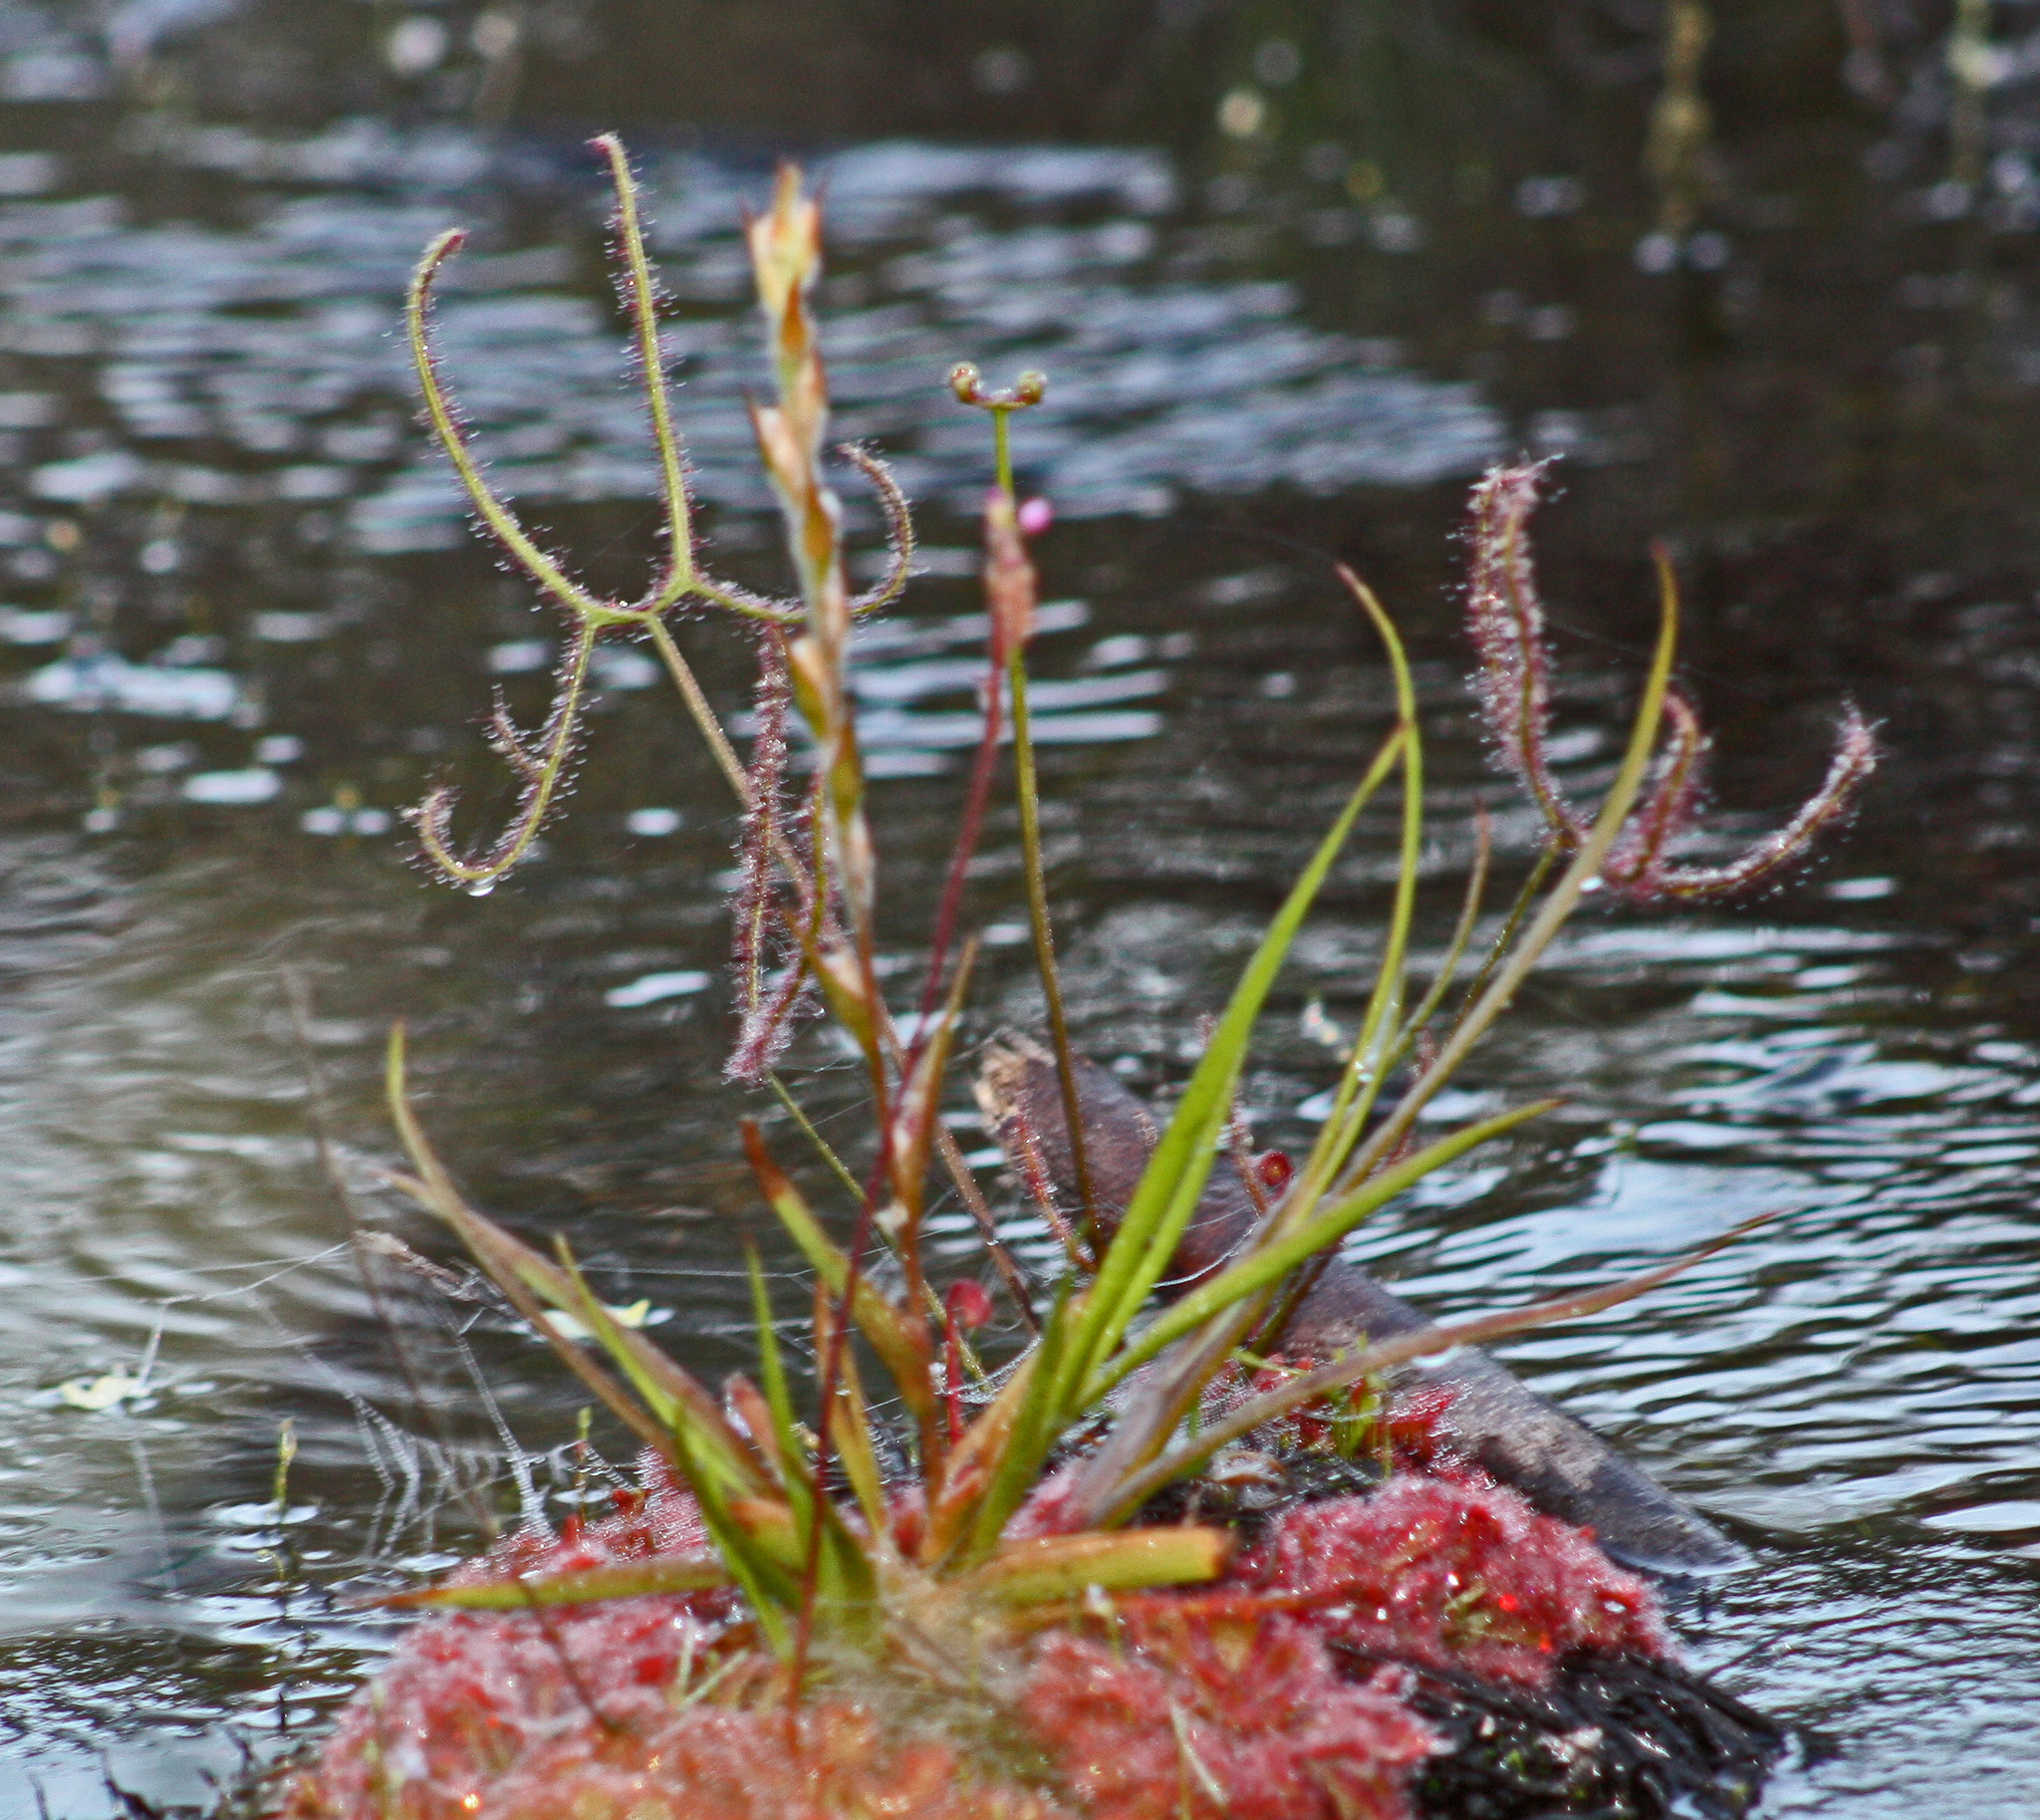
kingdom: Plantae
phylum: Tracheophyta
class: Magnoliopsida
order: Caryophyllales
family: Droseraceae
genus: Drosera
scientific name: Drosera binata
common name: Forked sundew
